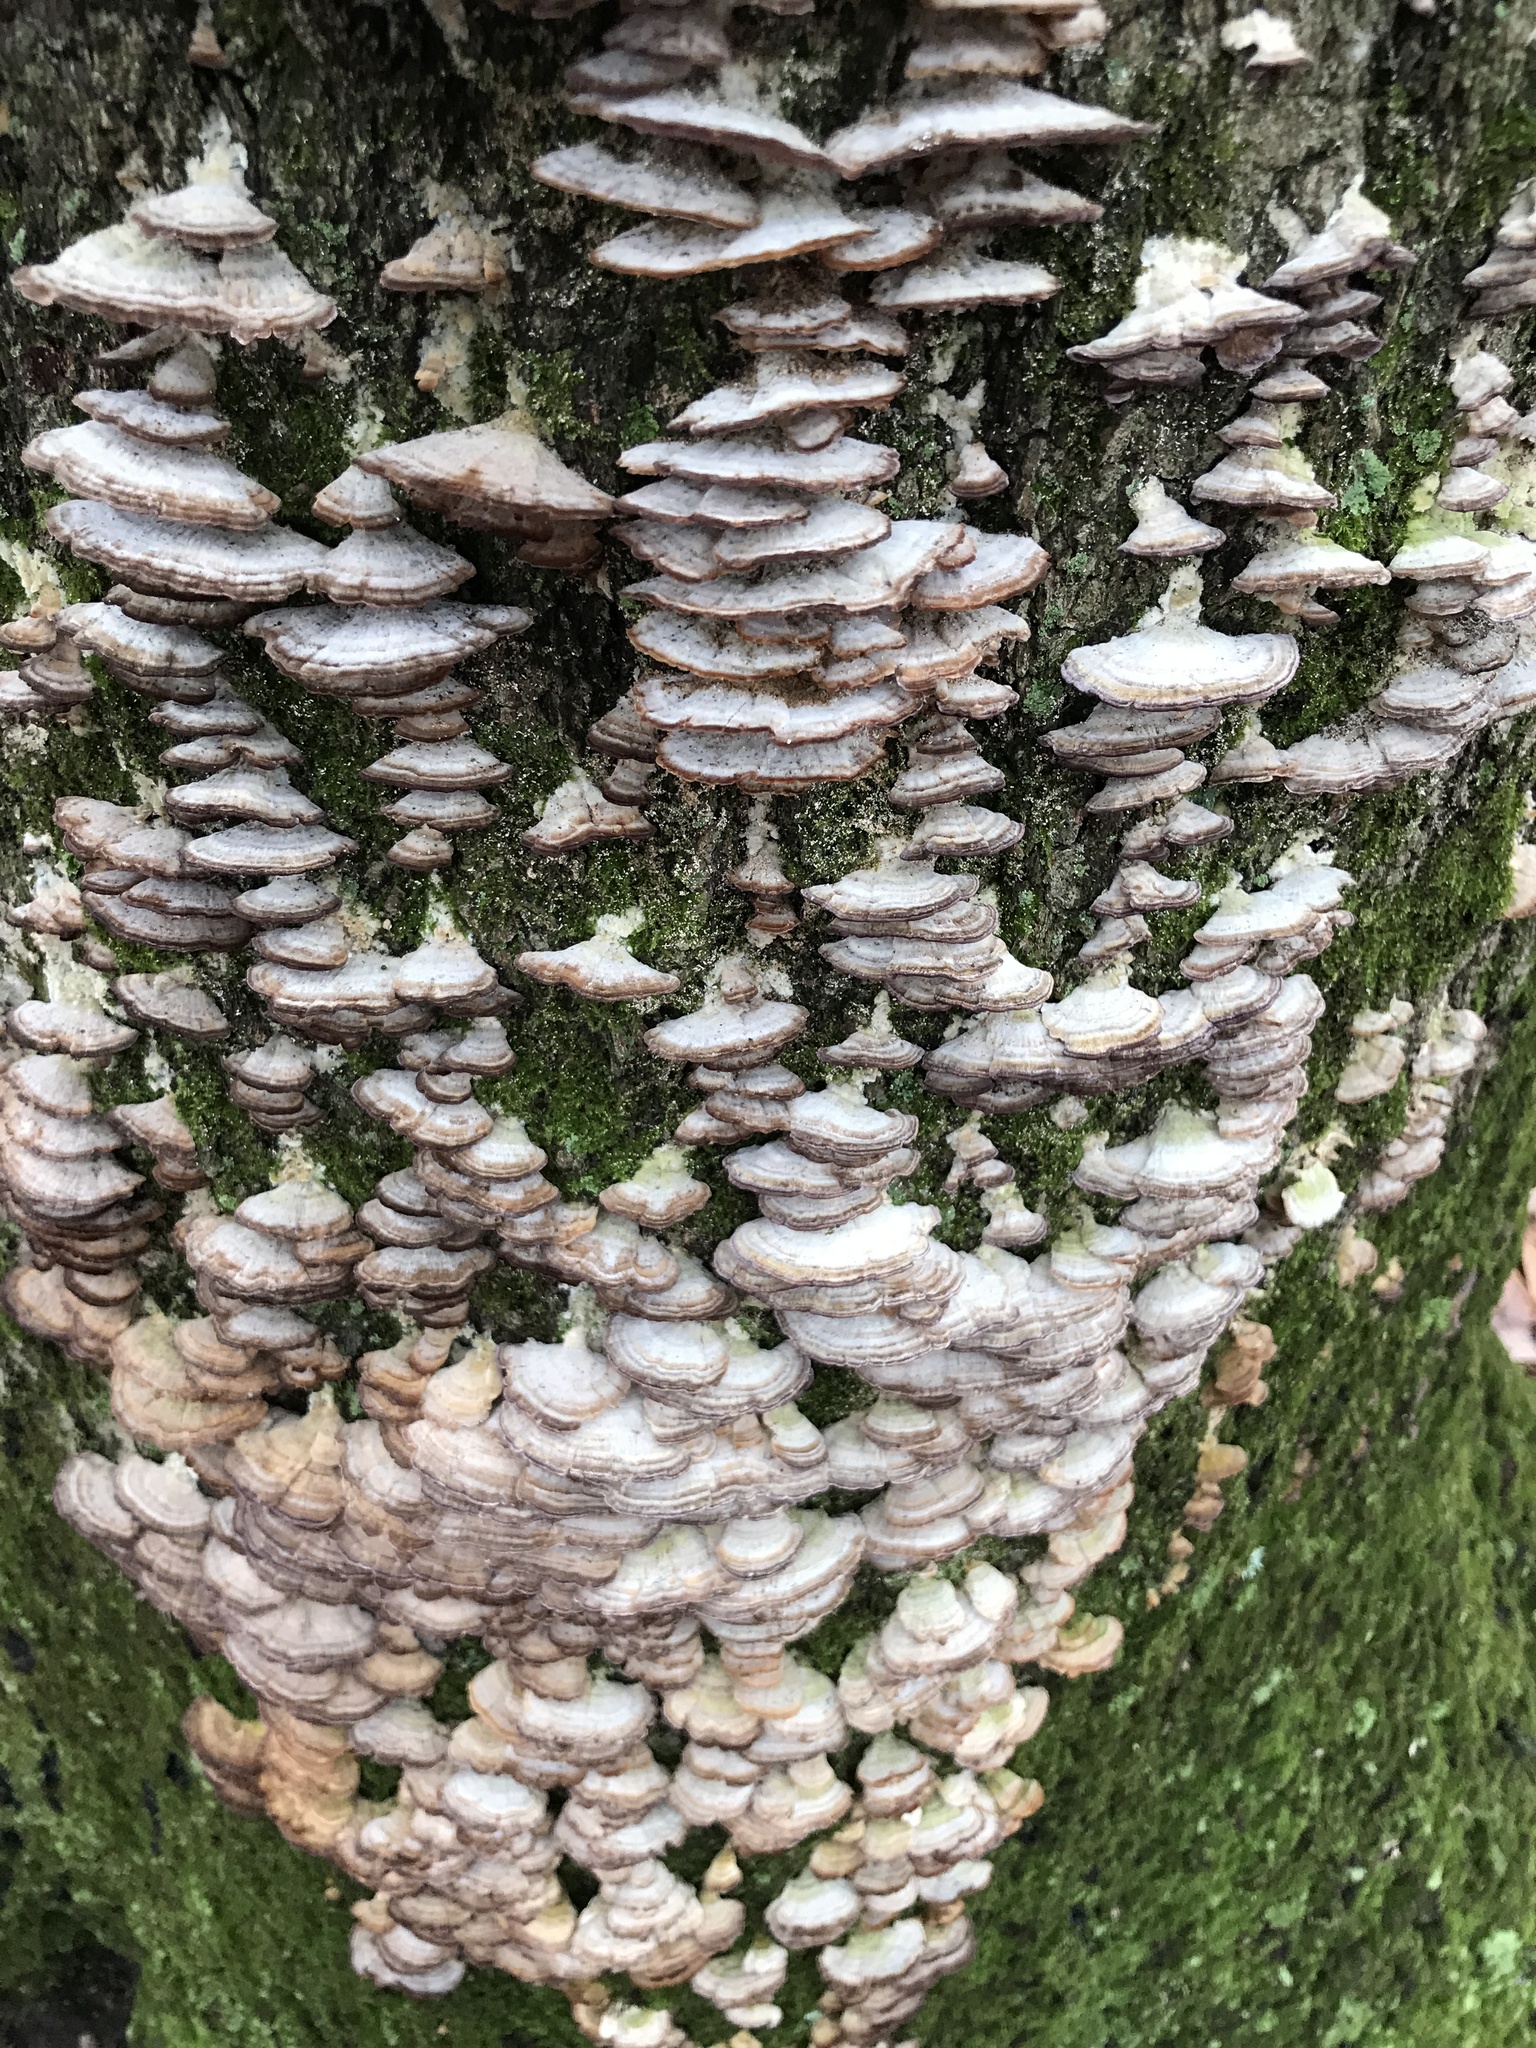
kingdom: Fungi
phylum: Basidiomycota
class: Agaricomycetes
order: Hymenochaetales
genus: Trichaptum
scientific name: Trichaptum biforme
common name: Violet-toothed polypore
